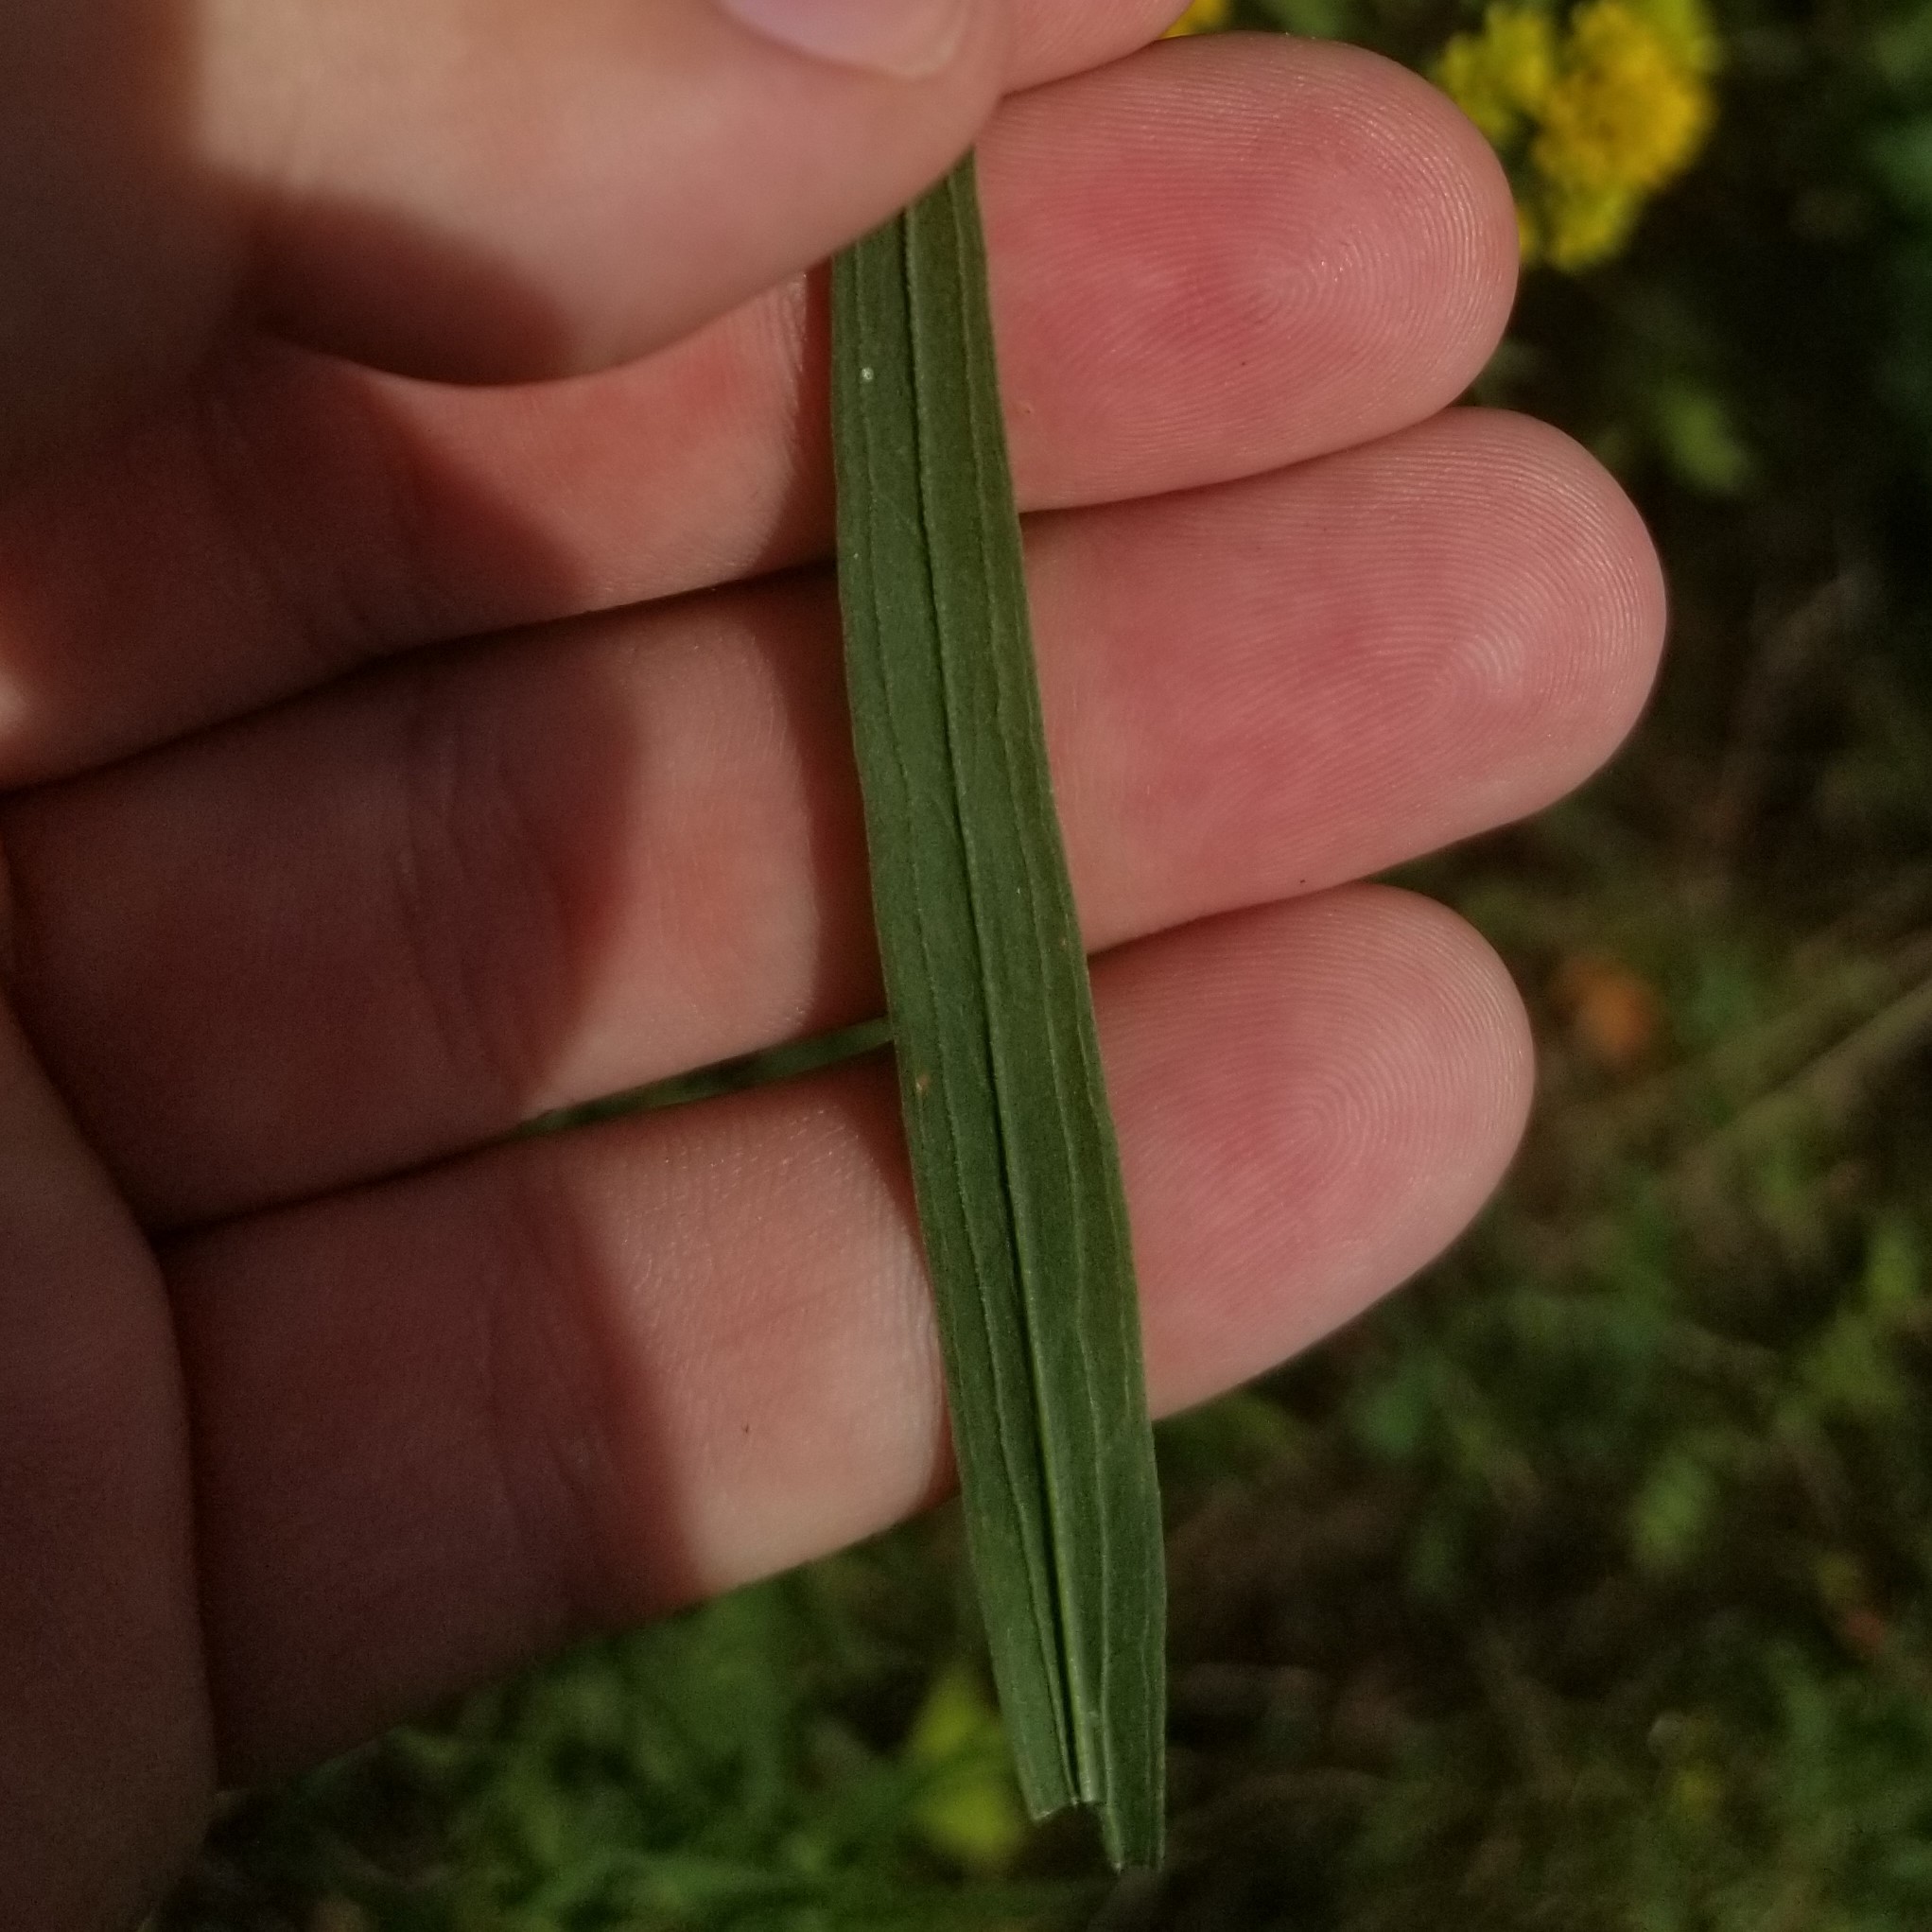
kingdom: Plantae
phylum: Tracheophyta
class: Magnoliopsida
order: Asterales
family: Asteraceae
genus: Euthamia
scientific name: Euthamia graminifolia
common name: Common goldentop
